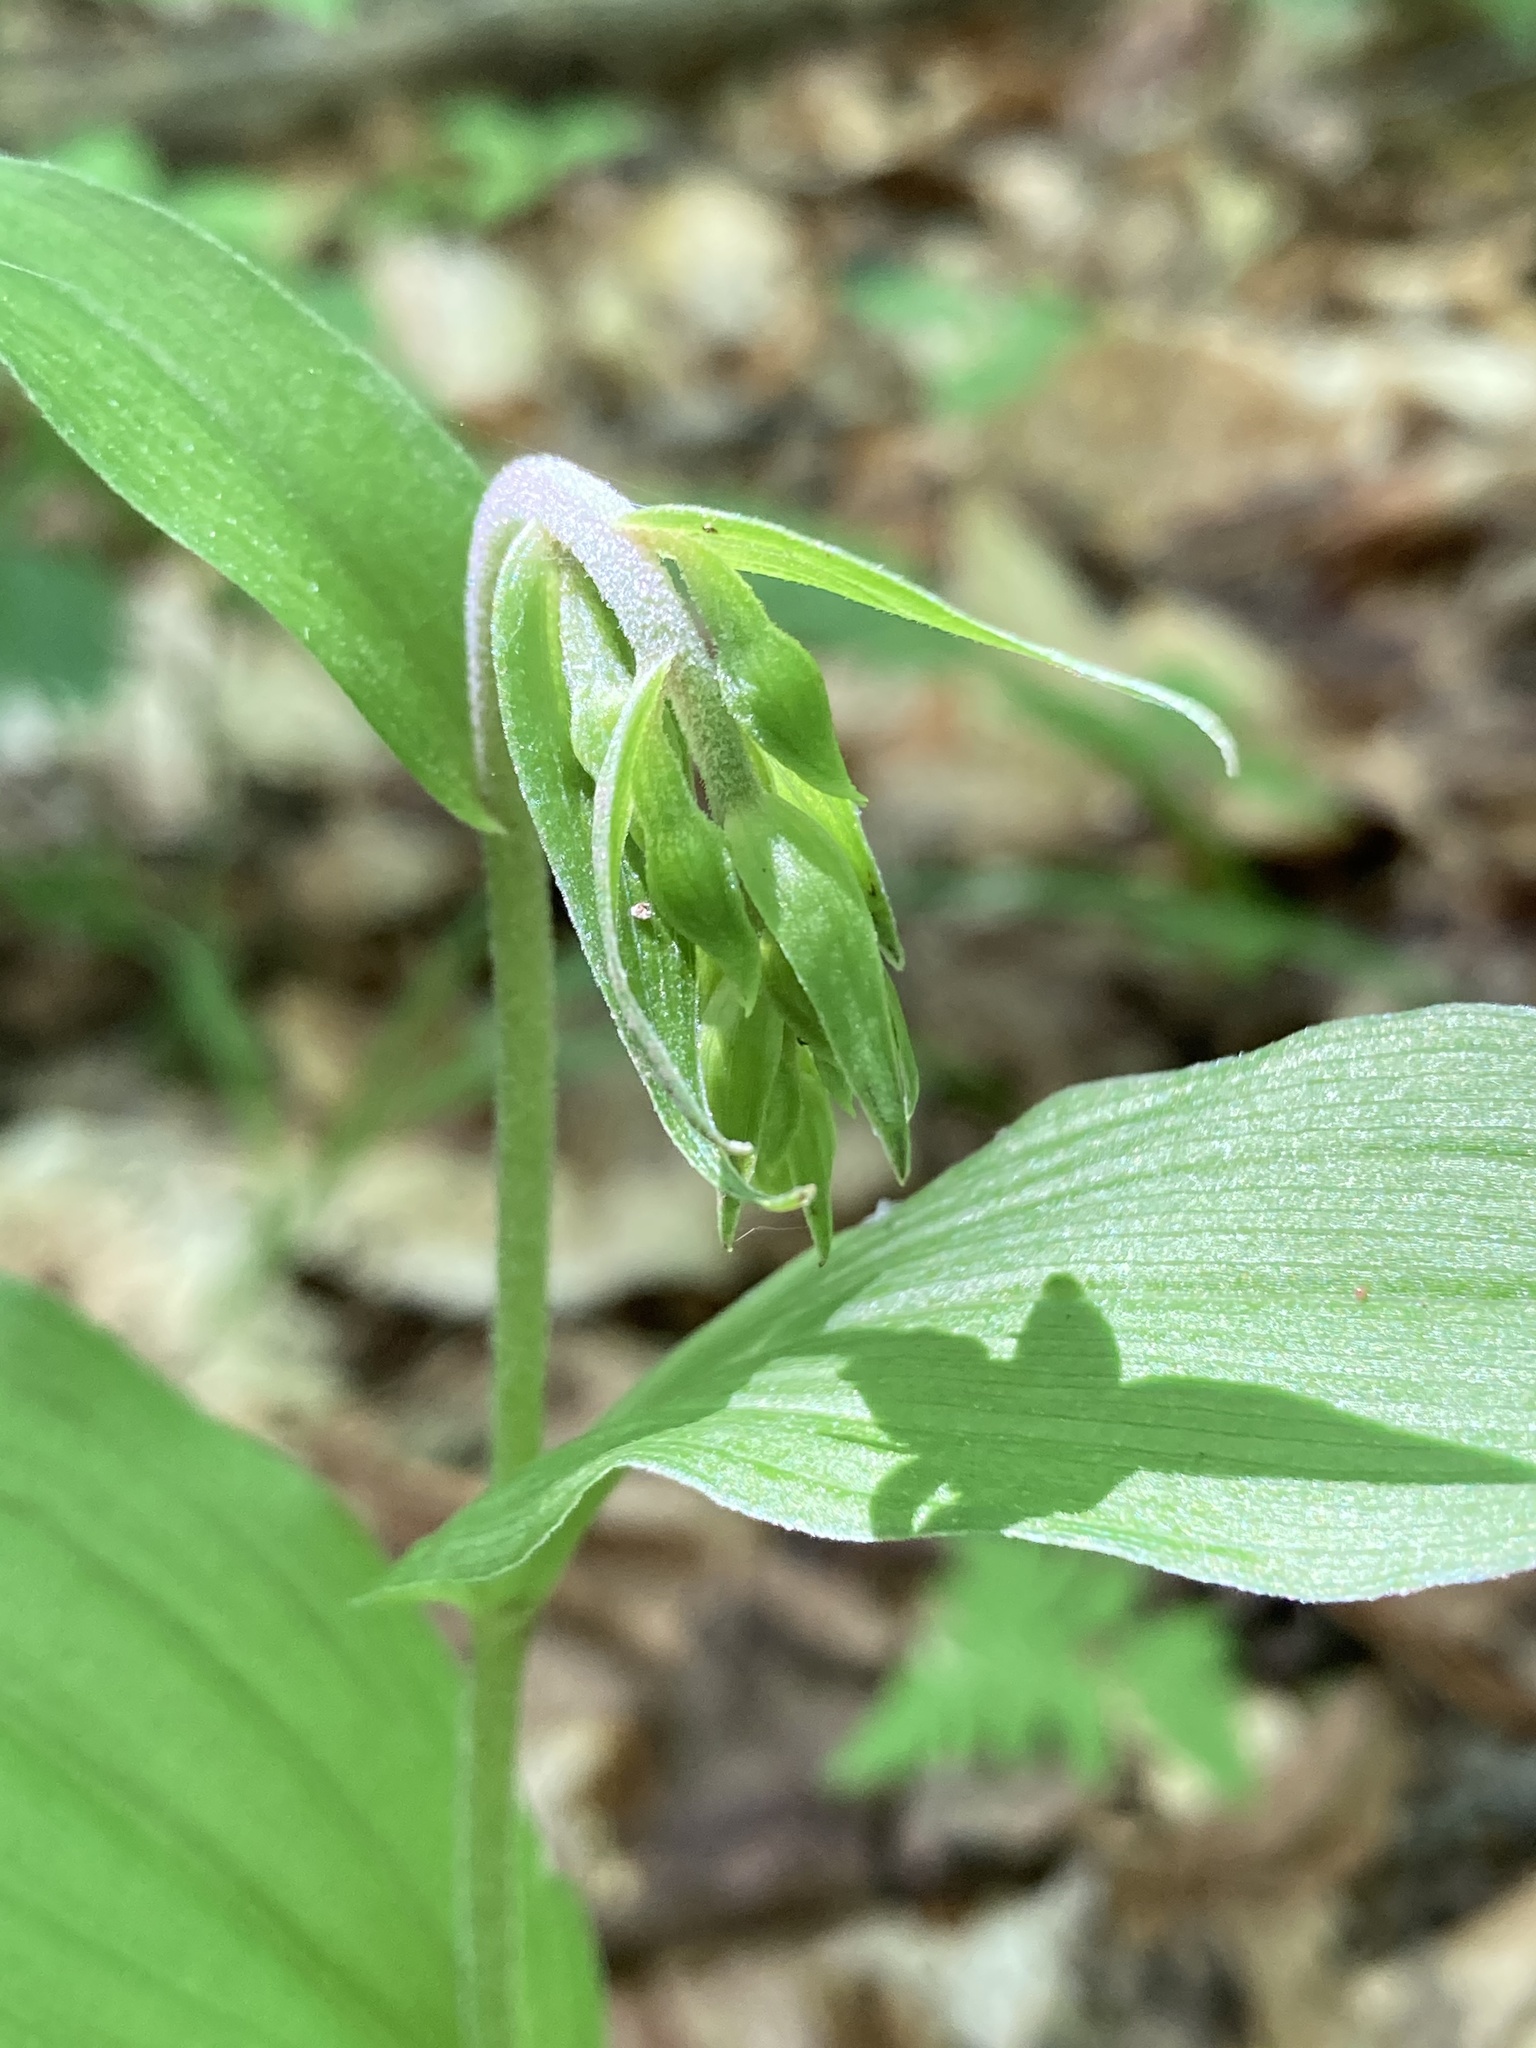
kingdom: Plantae
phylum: Tracheophyta
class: Liliopsida
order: Asparagales
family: Orchidaceae
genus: Epipactis
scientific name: Epipactis helleborine
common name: Broad-leaved helleborine
